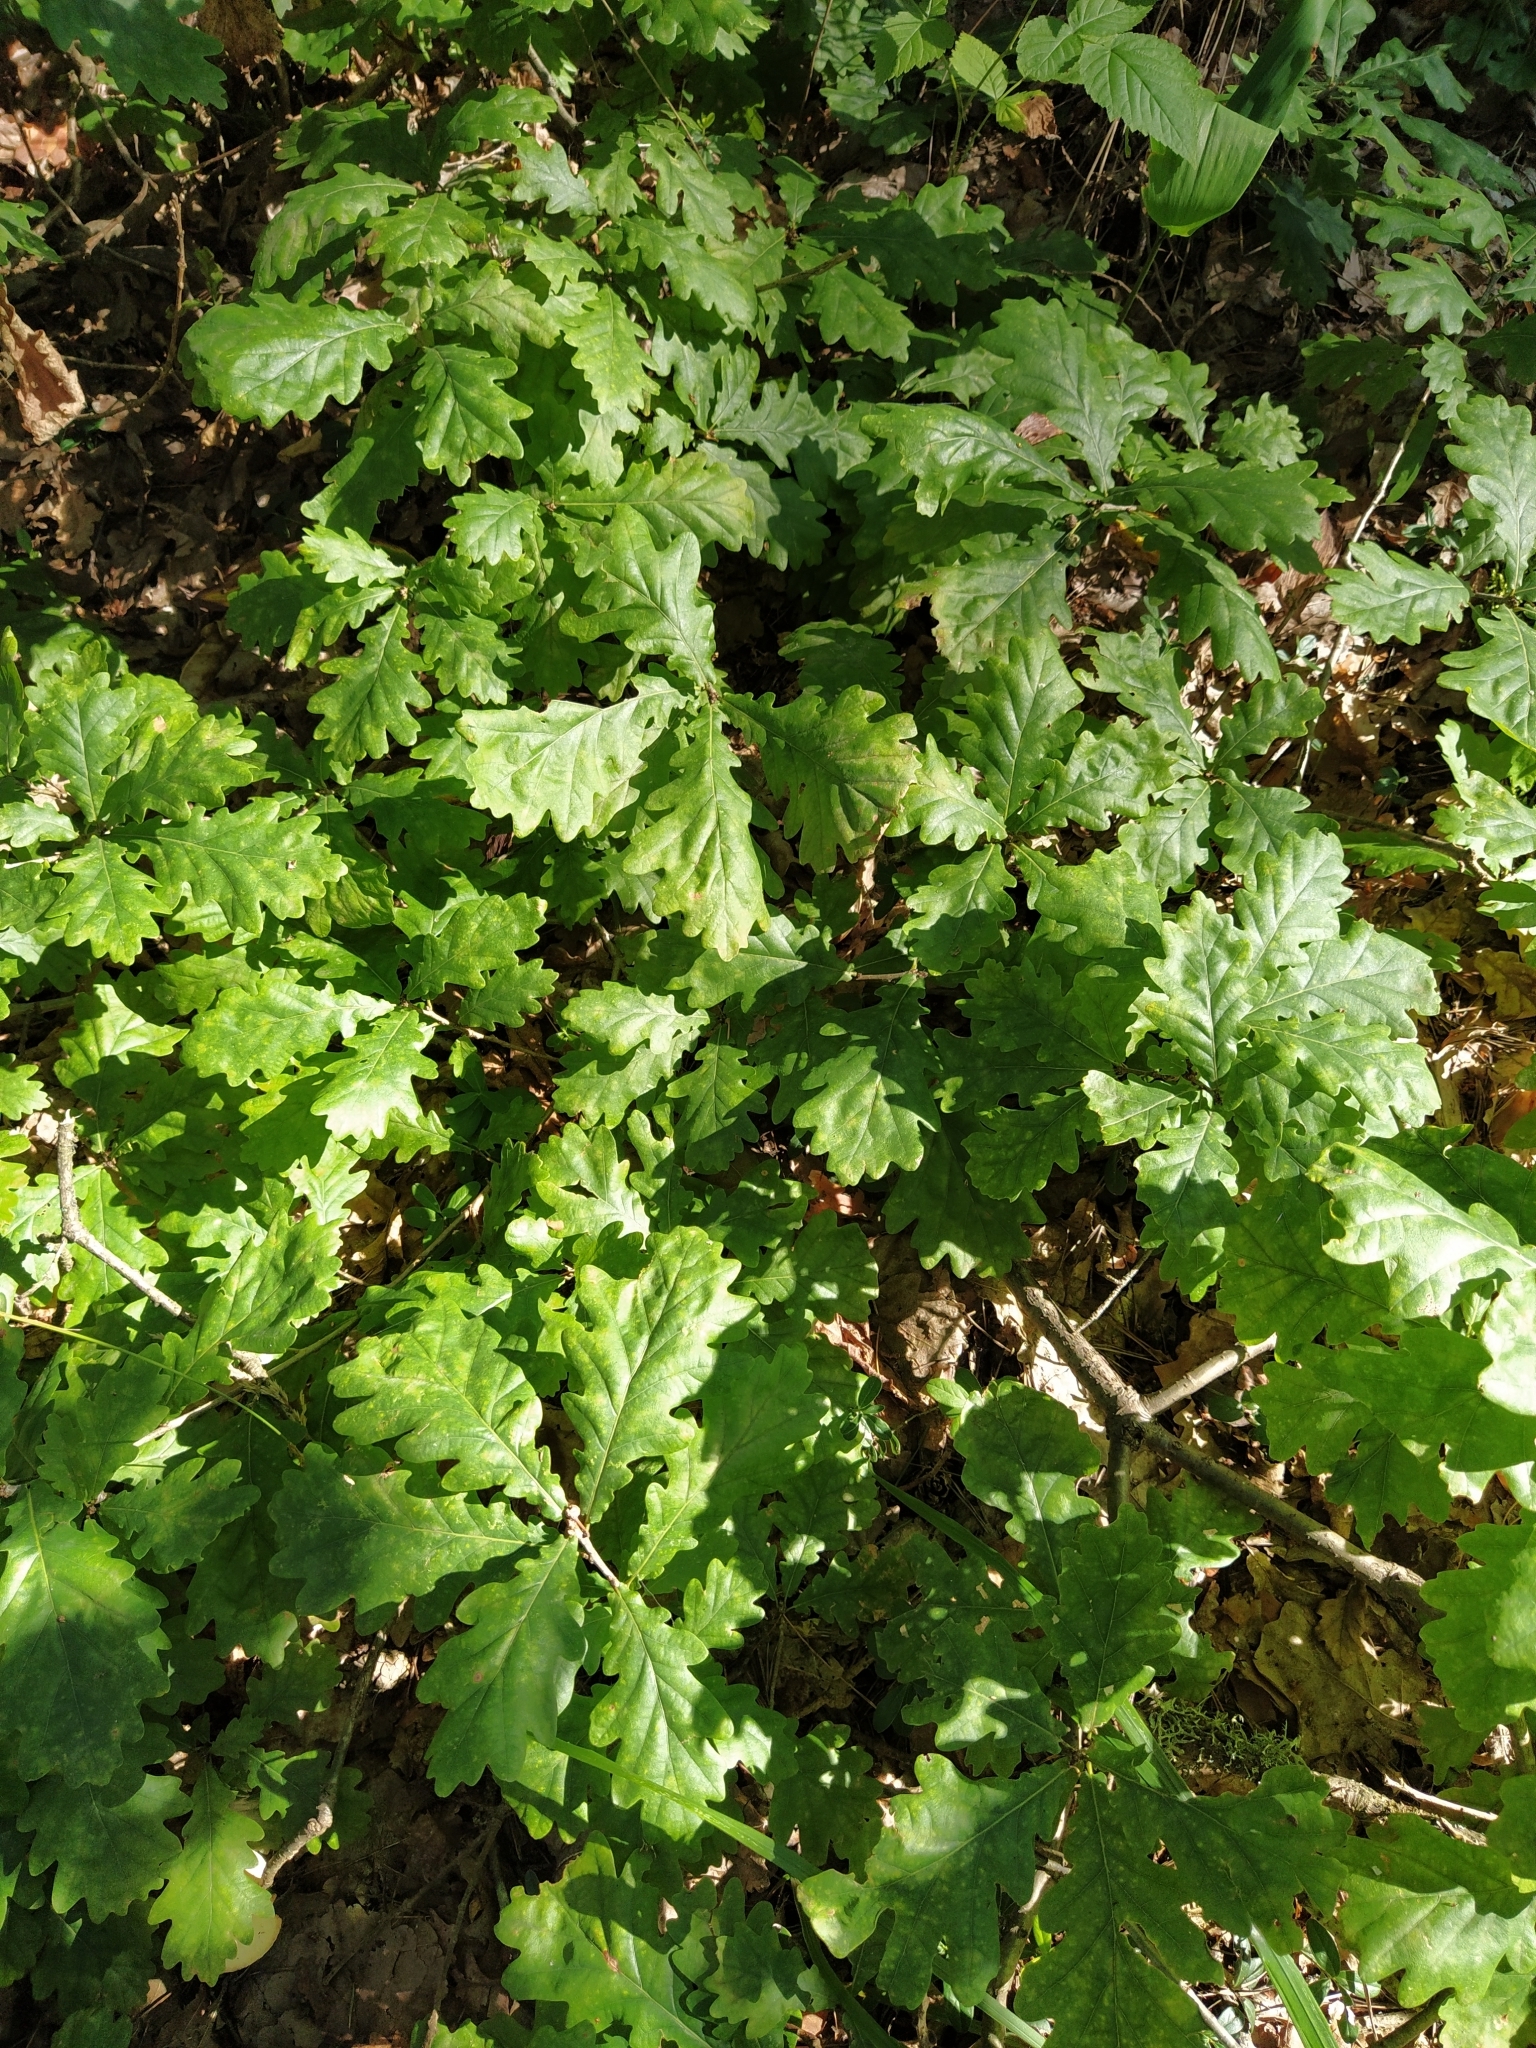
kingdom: Plantae
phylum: Tracheophyta
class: Magnoliopsida
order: Fagales
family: Fagaceae
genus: Quercus
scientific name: Quercus robur
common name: Pedunculate oak
